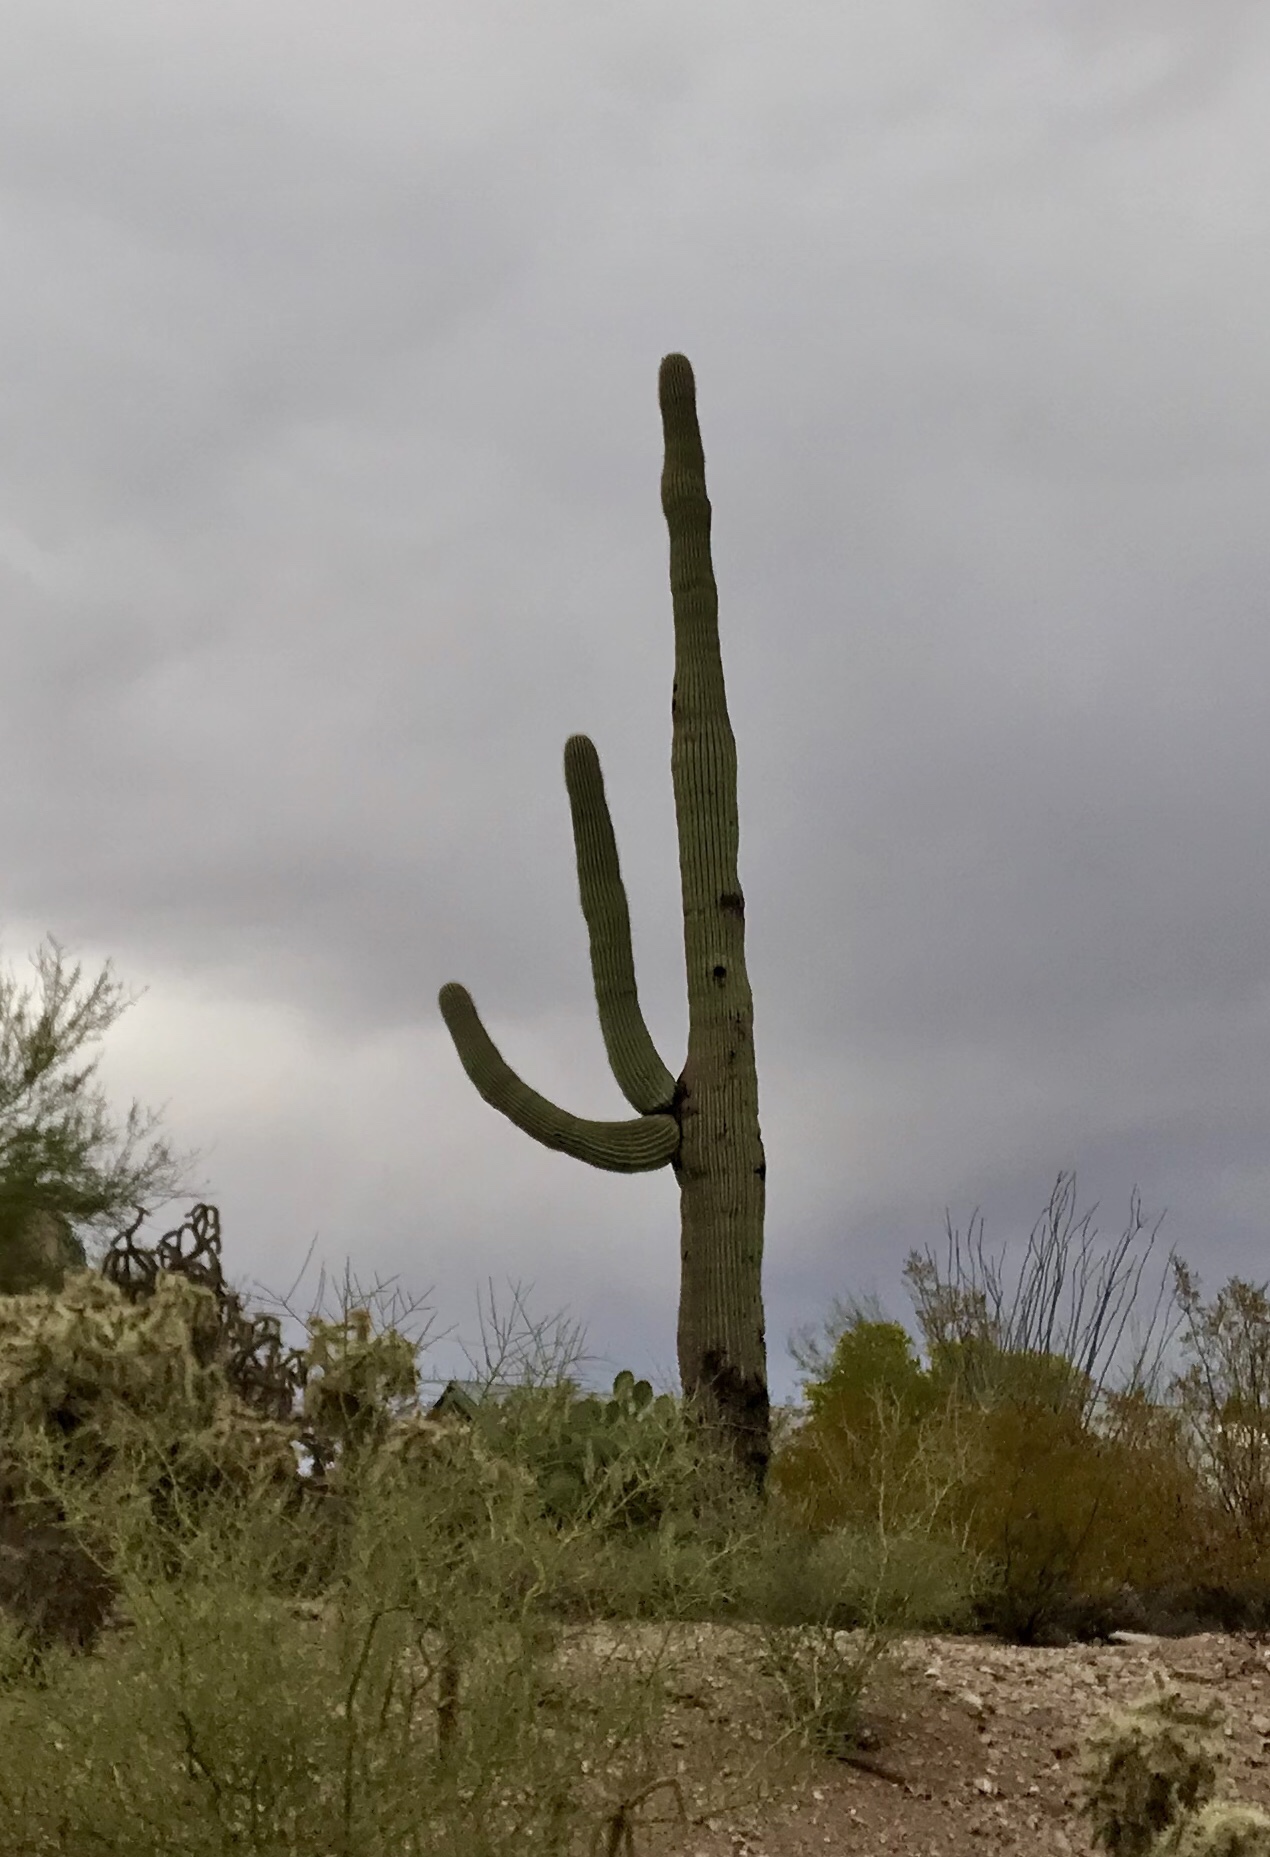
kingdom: Plantae
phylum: Tracheophyta
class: Magnoliopsida
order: Caryophyllales
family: Cactaceae
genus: Carnegiea
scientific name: Carnegiea gigantea
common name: Saguaro
